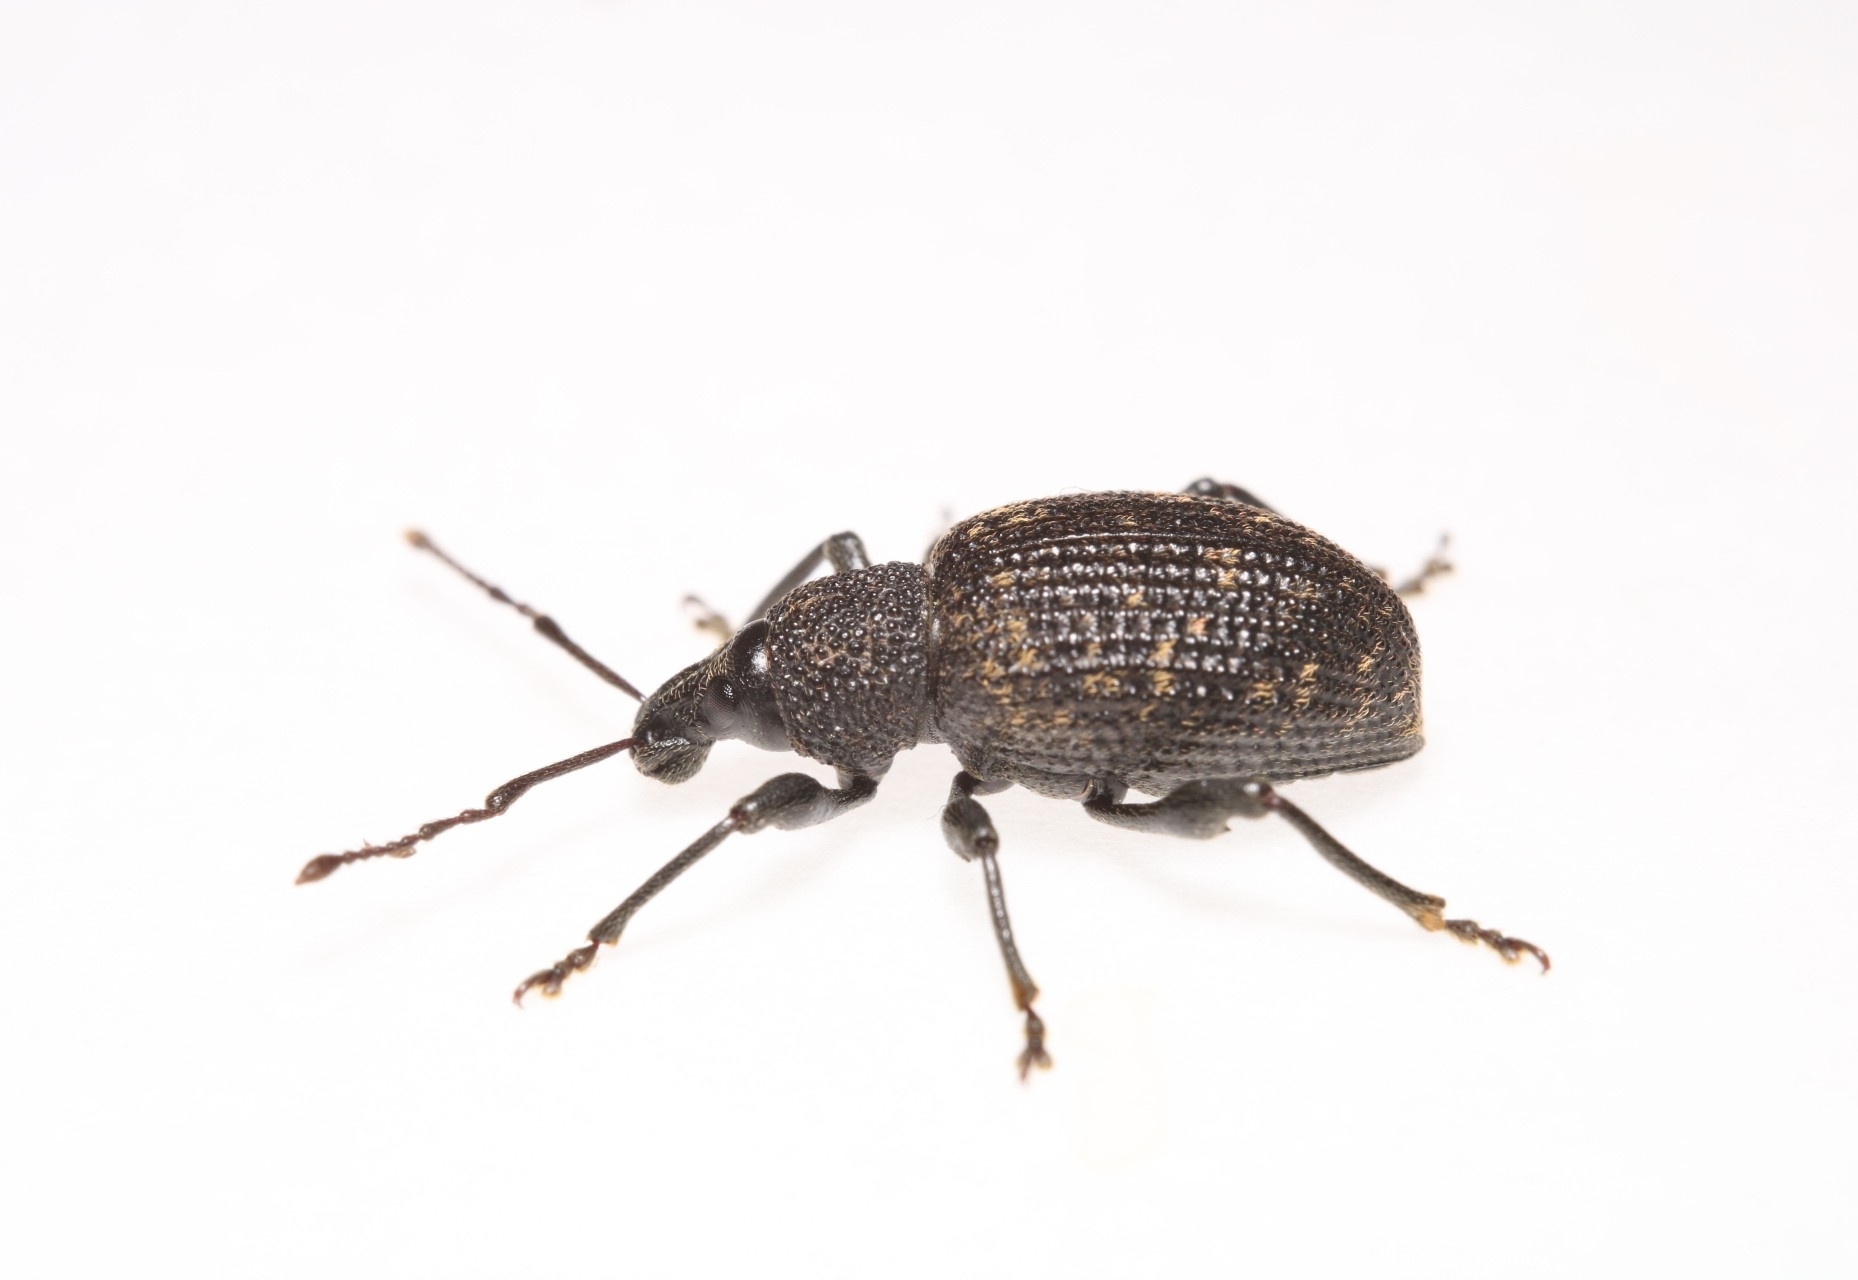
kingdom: Animalia
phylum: Arthropoda
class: Insecta
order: Coleoptera
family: Curculionidae
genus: Otiorhynchus
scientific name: Otiorhynchus sulcatus
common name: Black vine weevil
